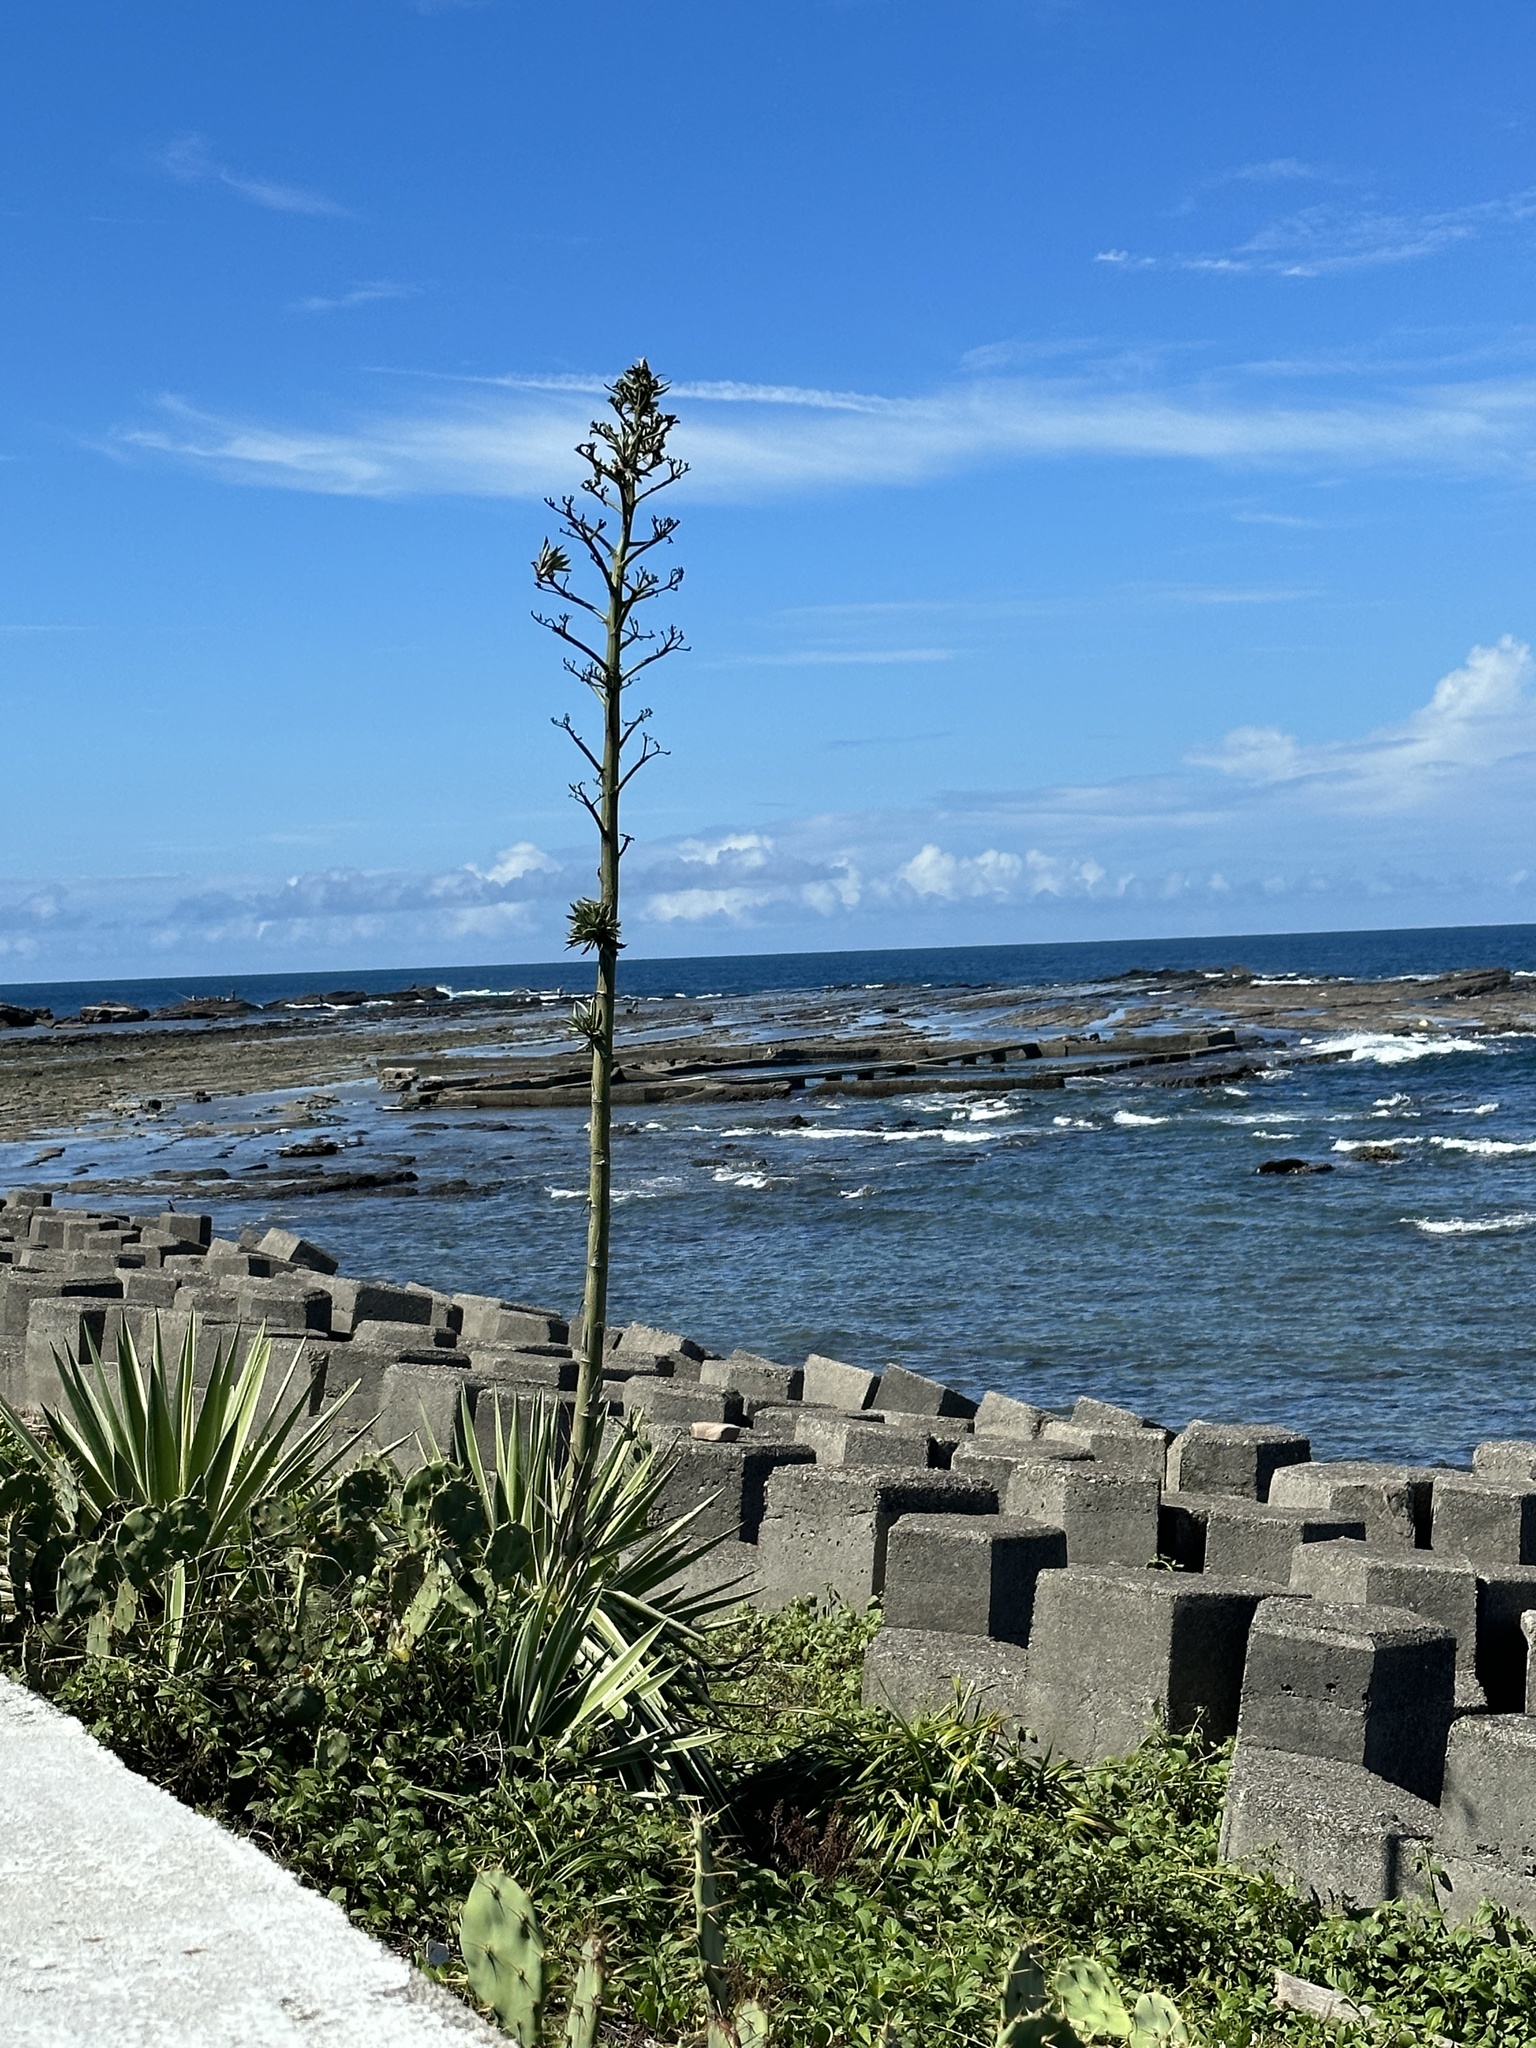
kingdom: Plantae
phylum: Tracheophyta
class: Liliopsida
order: Asparagales
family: Asparagaceae
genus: Agave
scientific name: Agave sisalana
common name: Sisal hemp
